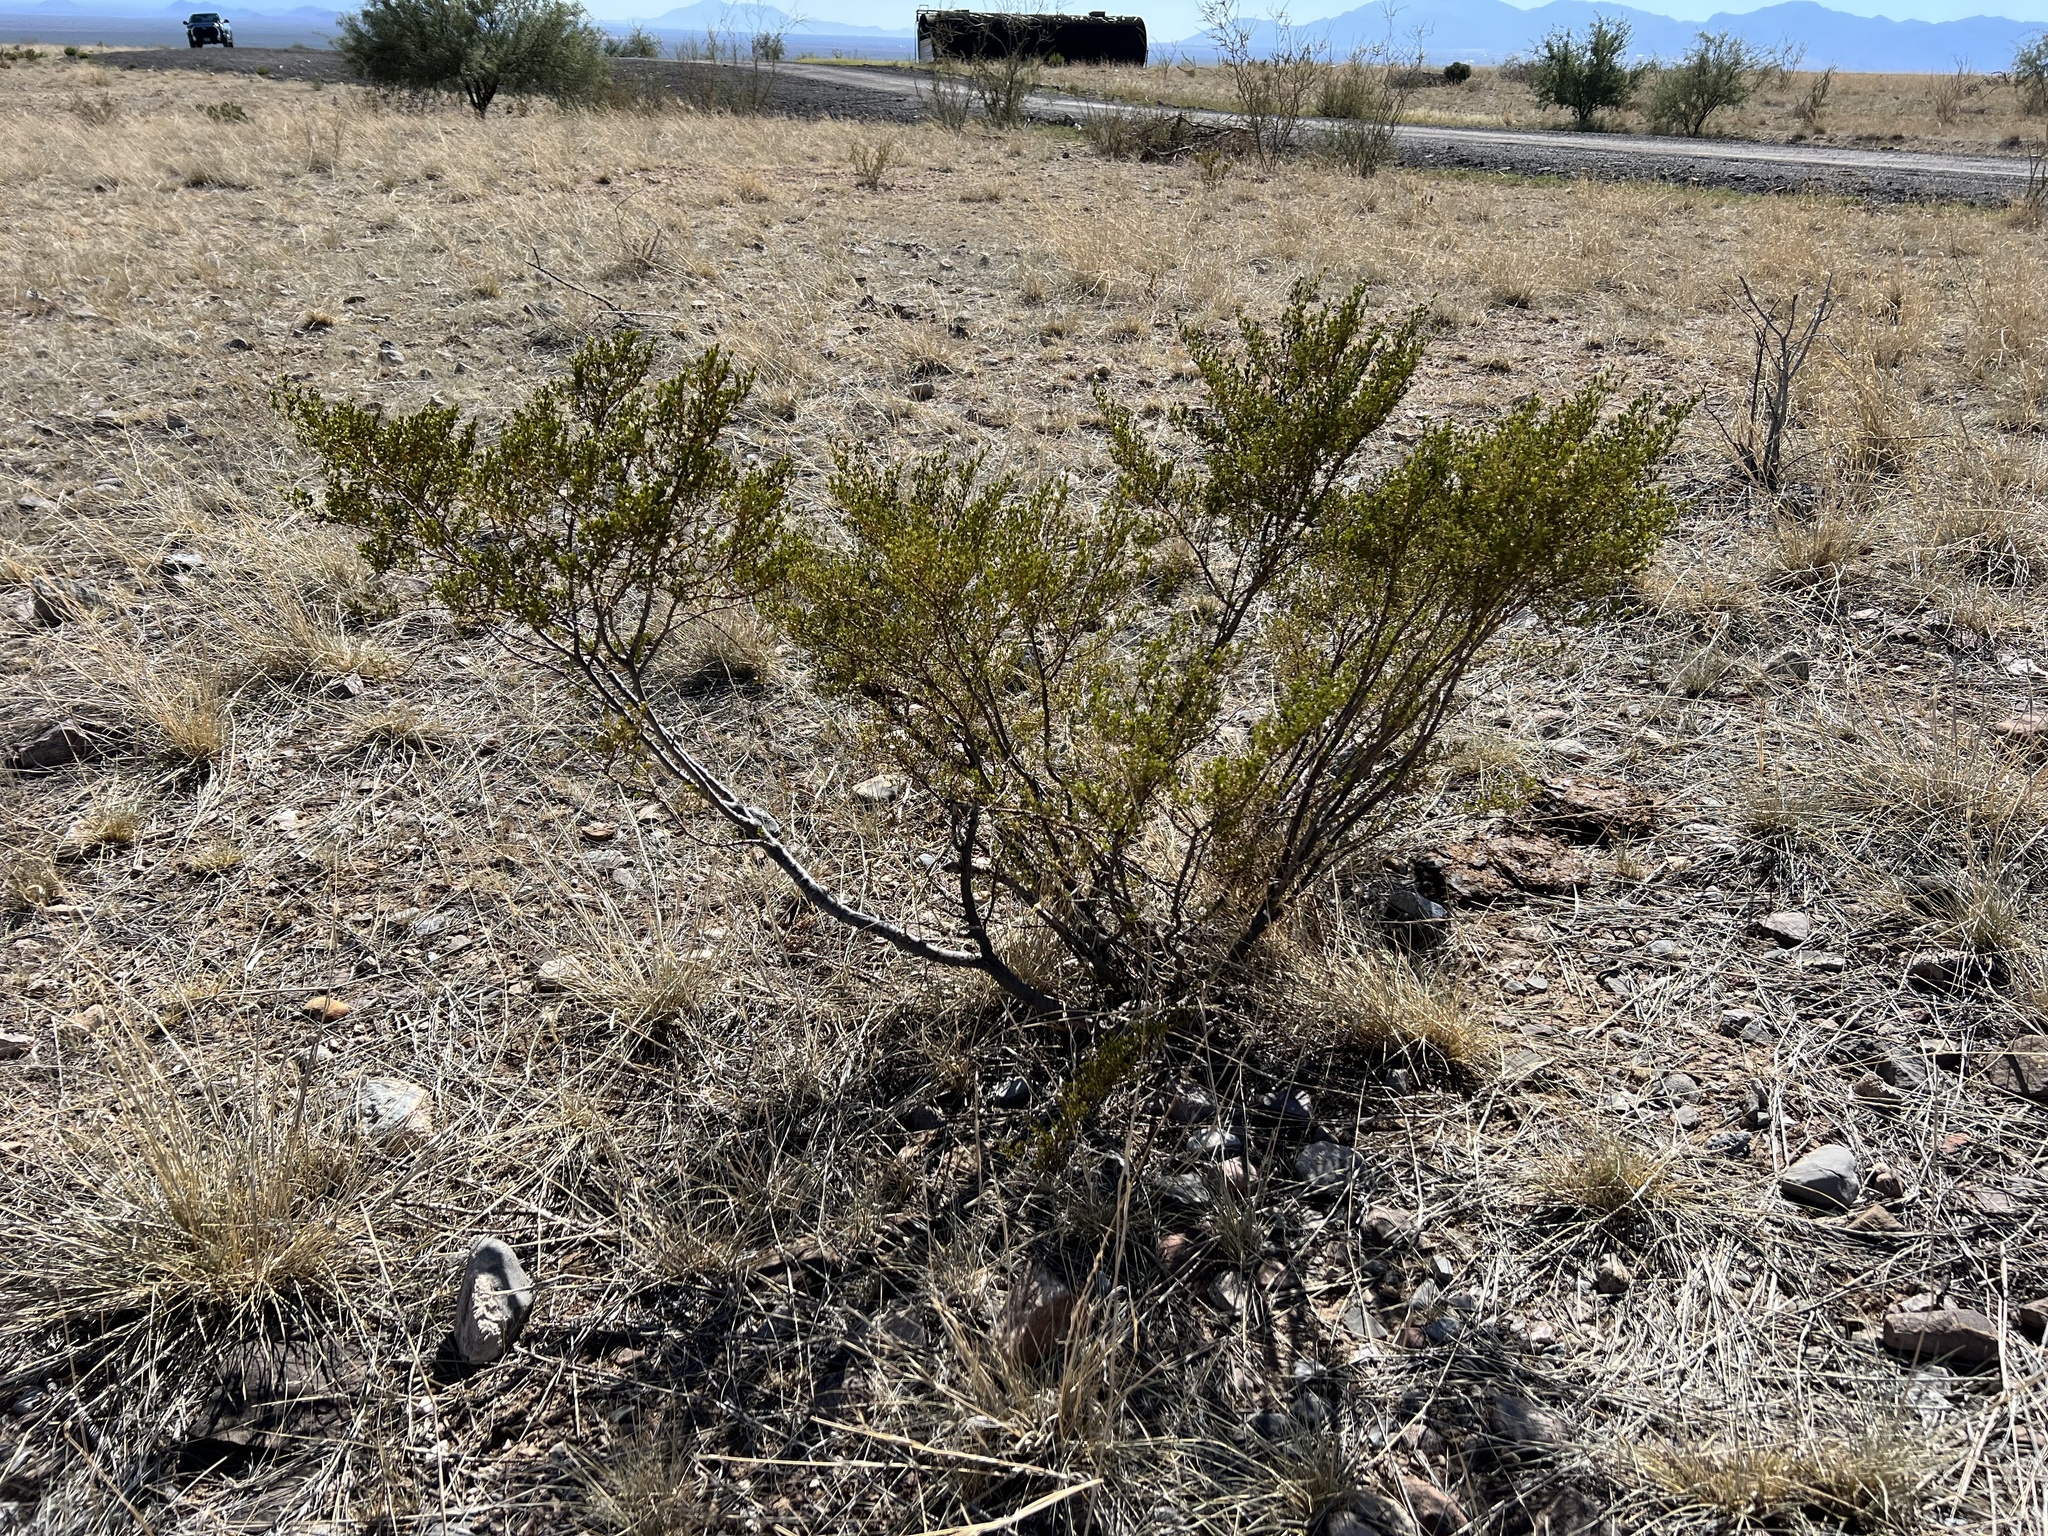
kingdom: Plantae
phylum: Tracheophyta
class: Magnoliopsida
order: Zygophyllales
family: Zygophyllaceae
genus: Larrea
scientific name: Larrea tridentata
